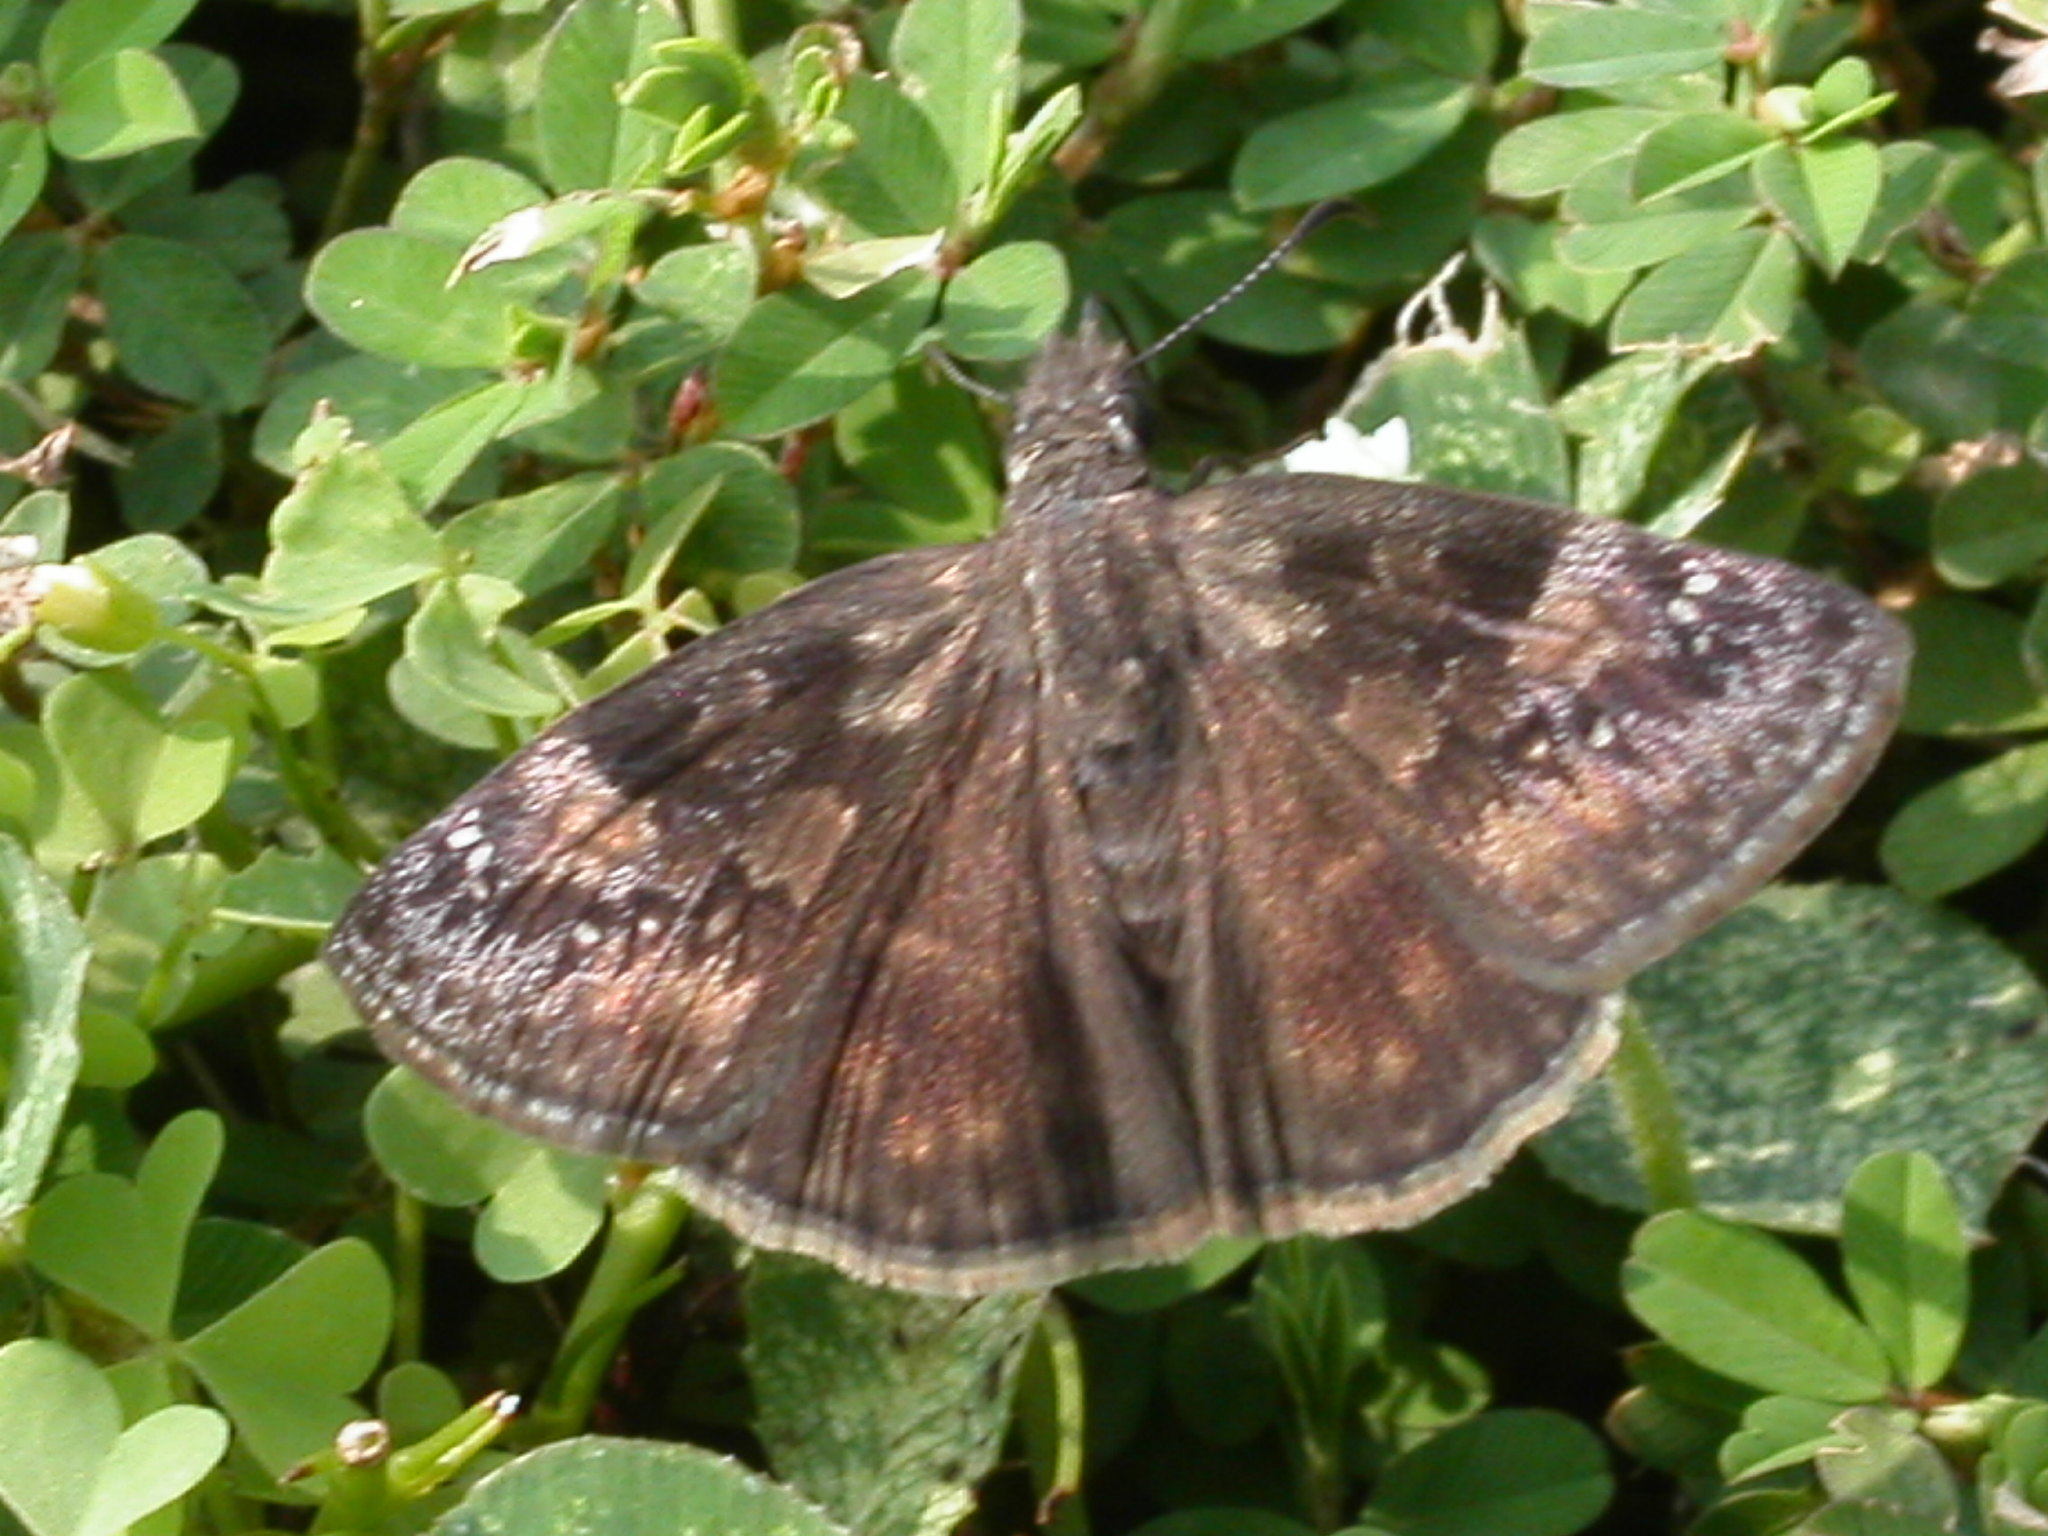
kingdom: Animalia
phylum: Arthropoda
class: Insecta
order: Lepidoptera
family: Hesperiidae
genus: Erynnis
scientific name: Erynnis baptisiae
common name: Wild indigo duskywing
